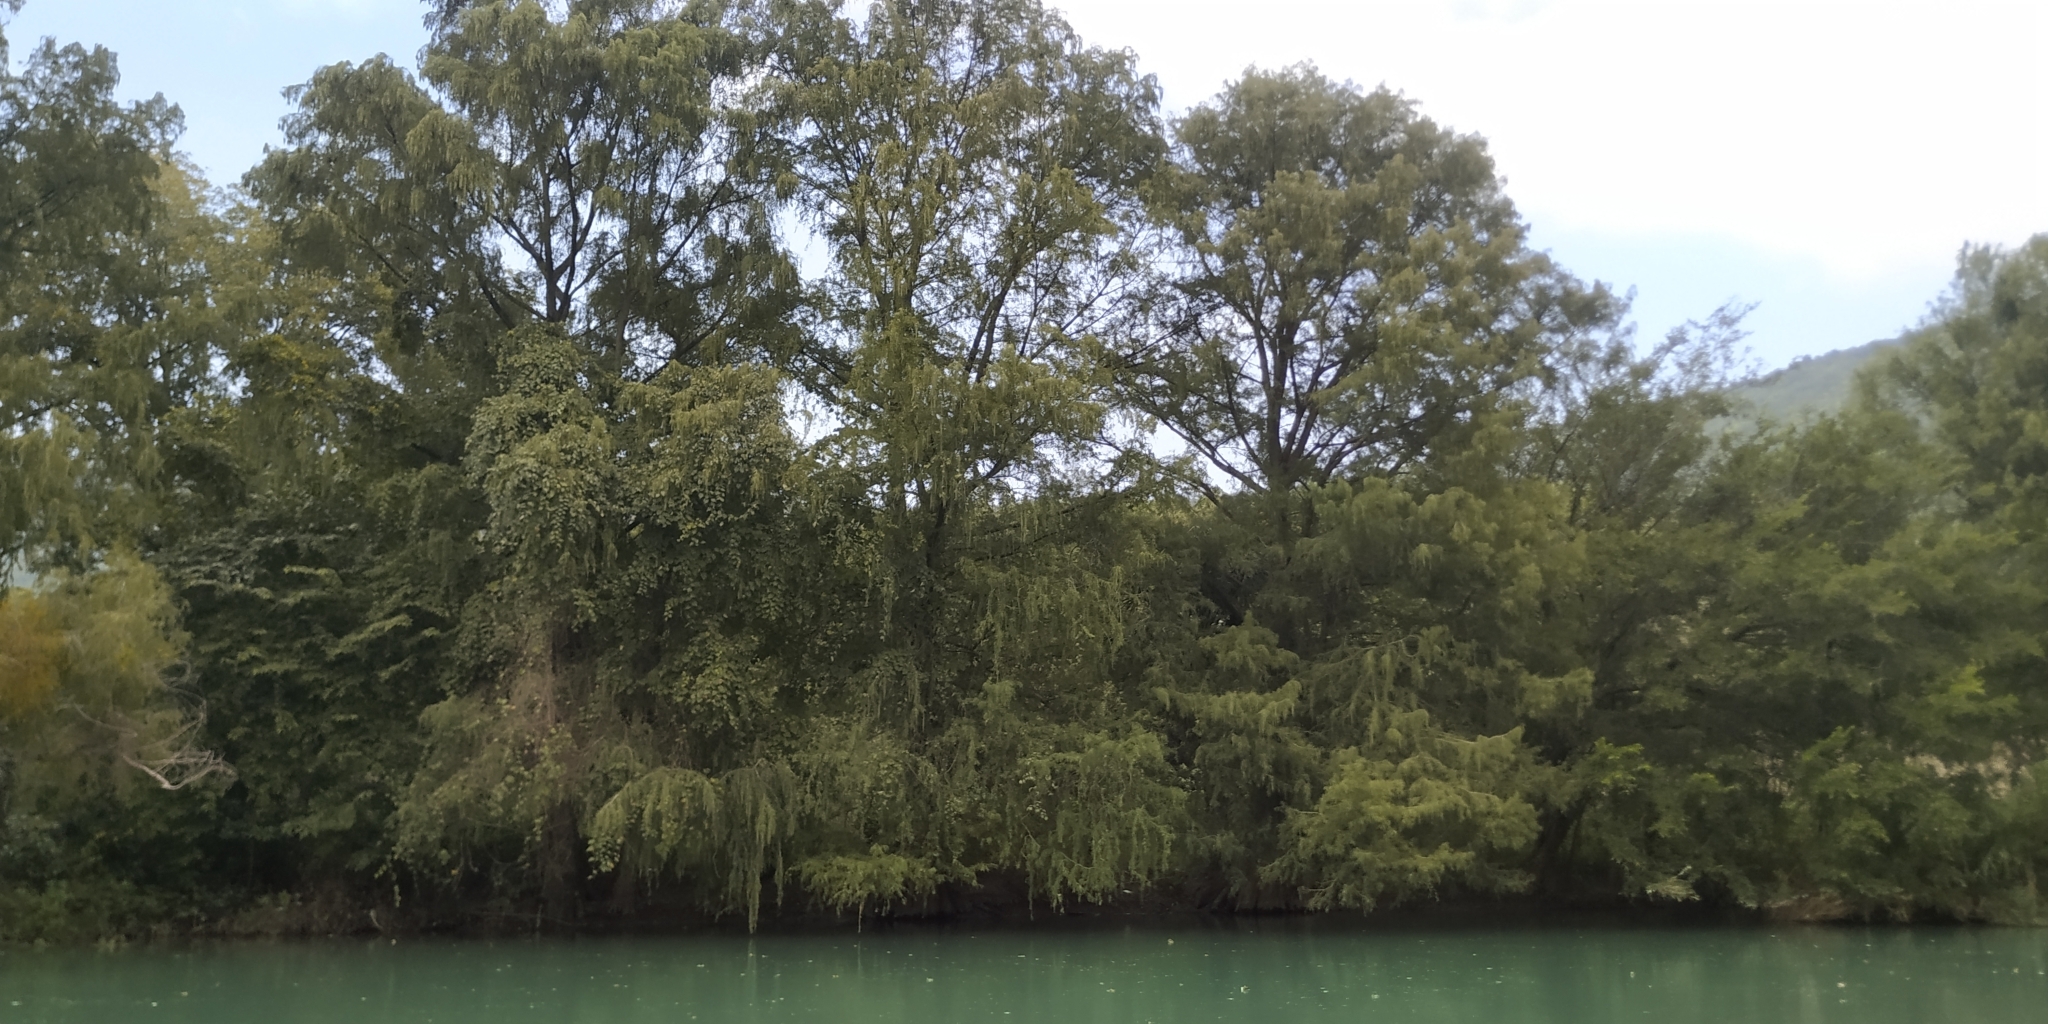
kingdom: Plantae
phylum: Tracheophyta
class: Pinopsida
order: Pinales
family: Cupressaceae
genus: Taxodium
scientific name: Taxodium mucronatum
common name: Montezume bald cypress
